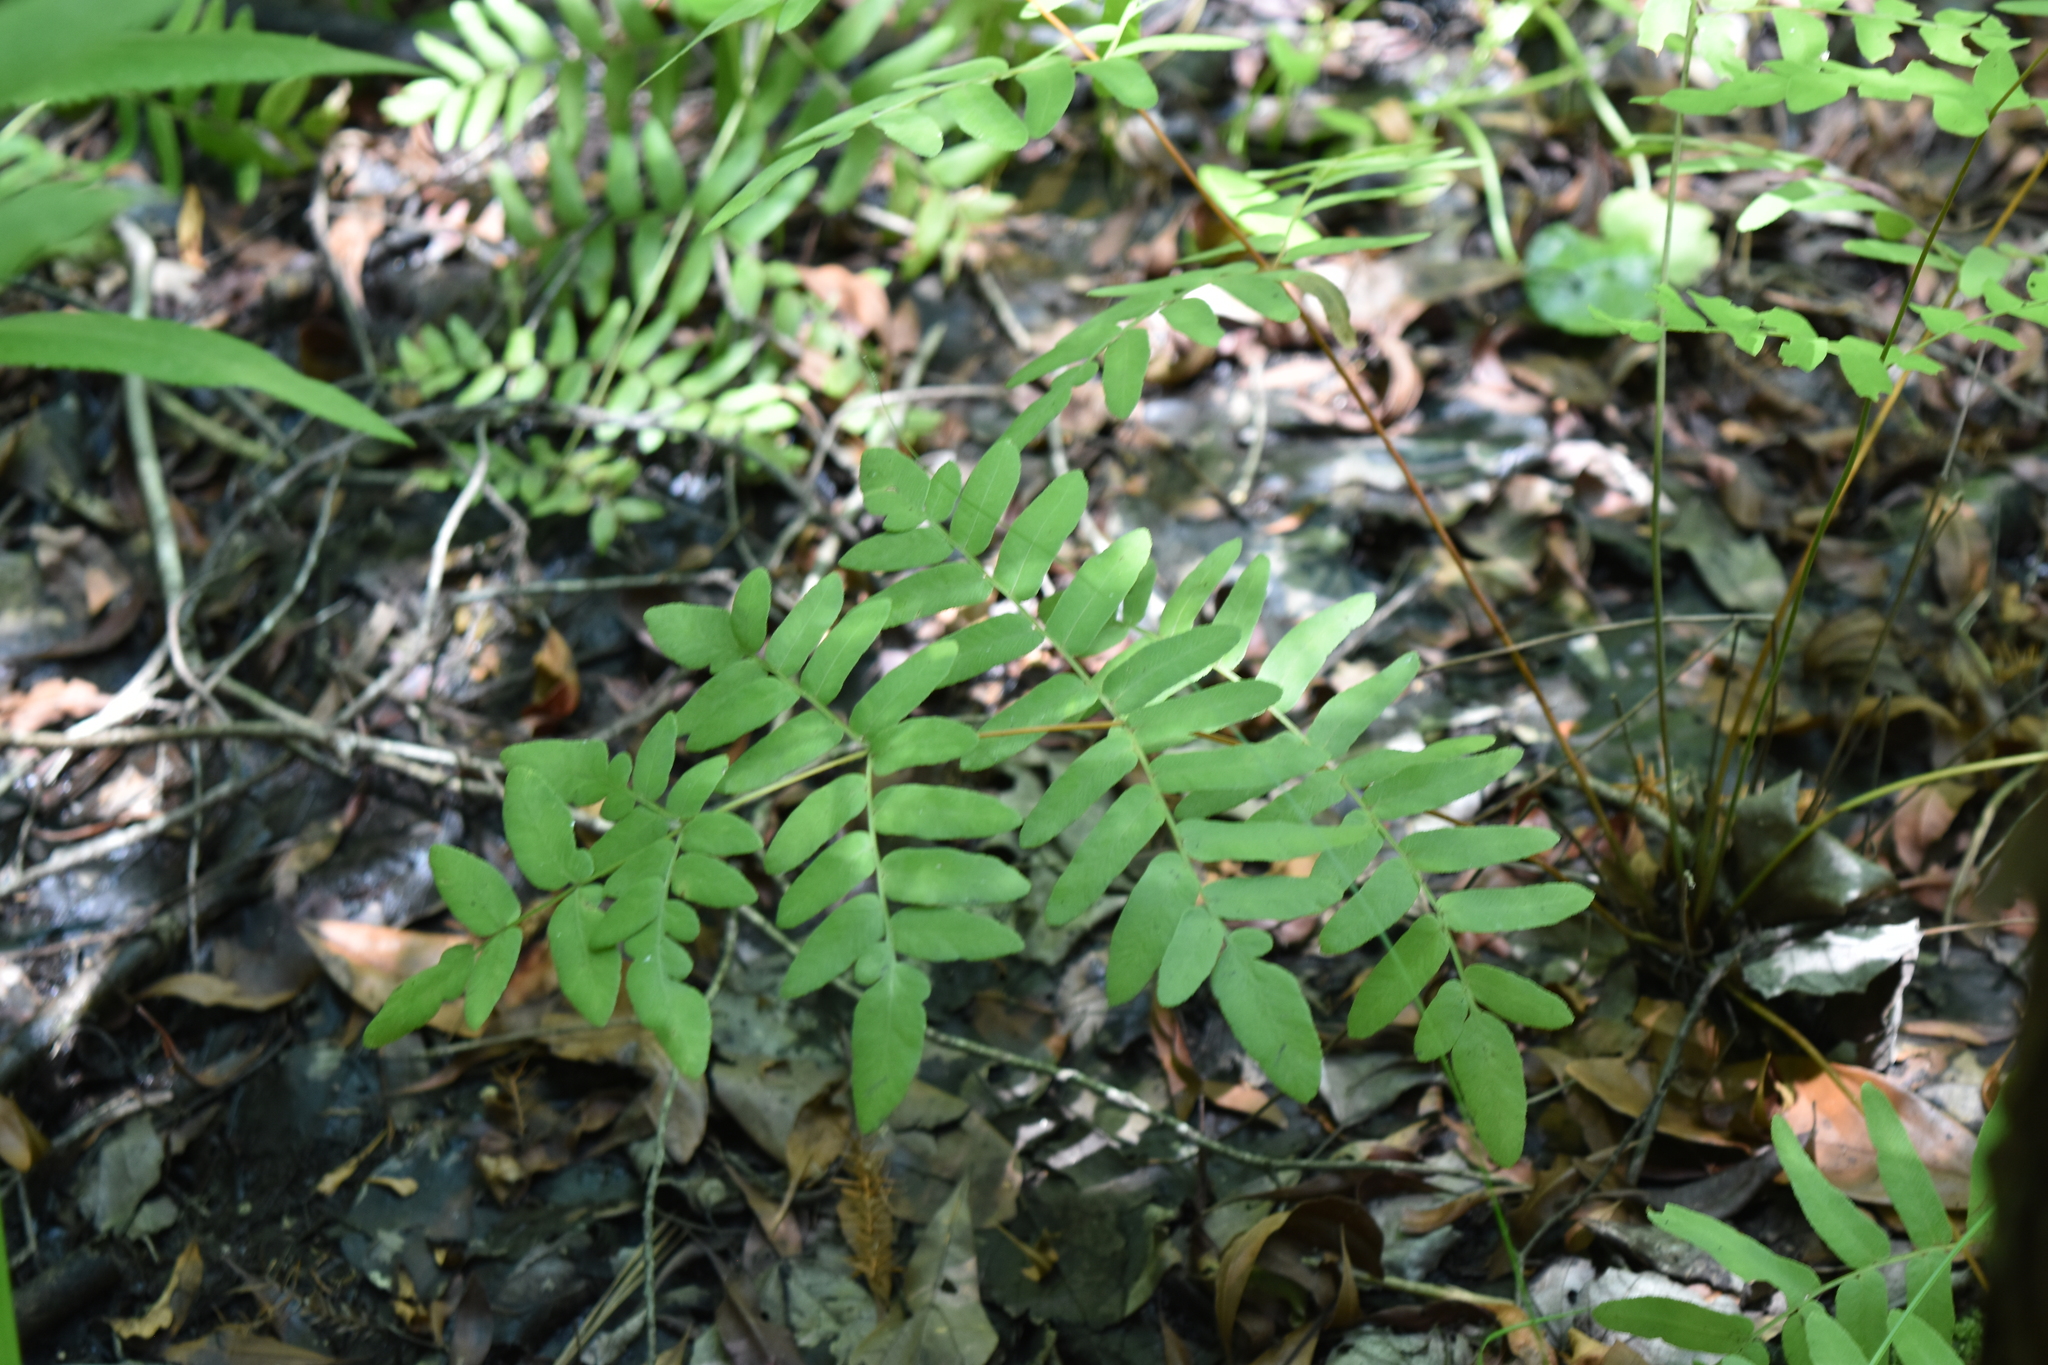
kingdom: Plantae
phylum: Tracheophyta
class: Polypodiopsida
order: Osmundales
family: Osmundaceae
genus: Osmunda
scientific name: Osmunda spectabilis
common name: American royal fern
